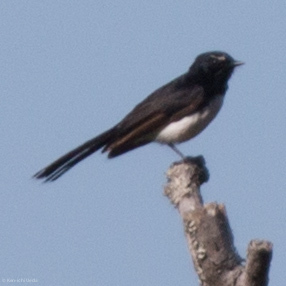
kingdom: Animalia
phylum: Chordata
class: Aves
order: Passeriformes
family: Rhipiduridae
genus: Rhipidura
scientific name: Rhipidura leucophrys
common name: Willie wagtail
